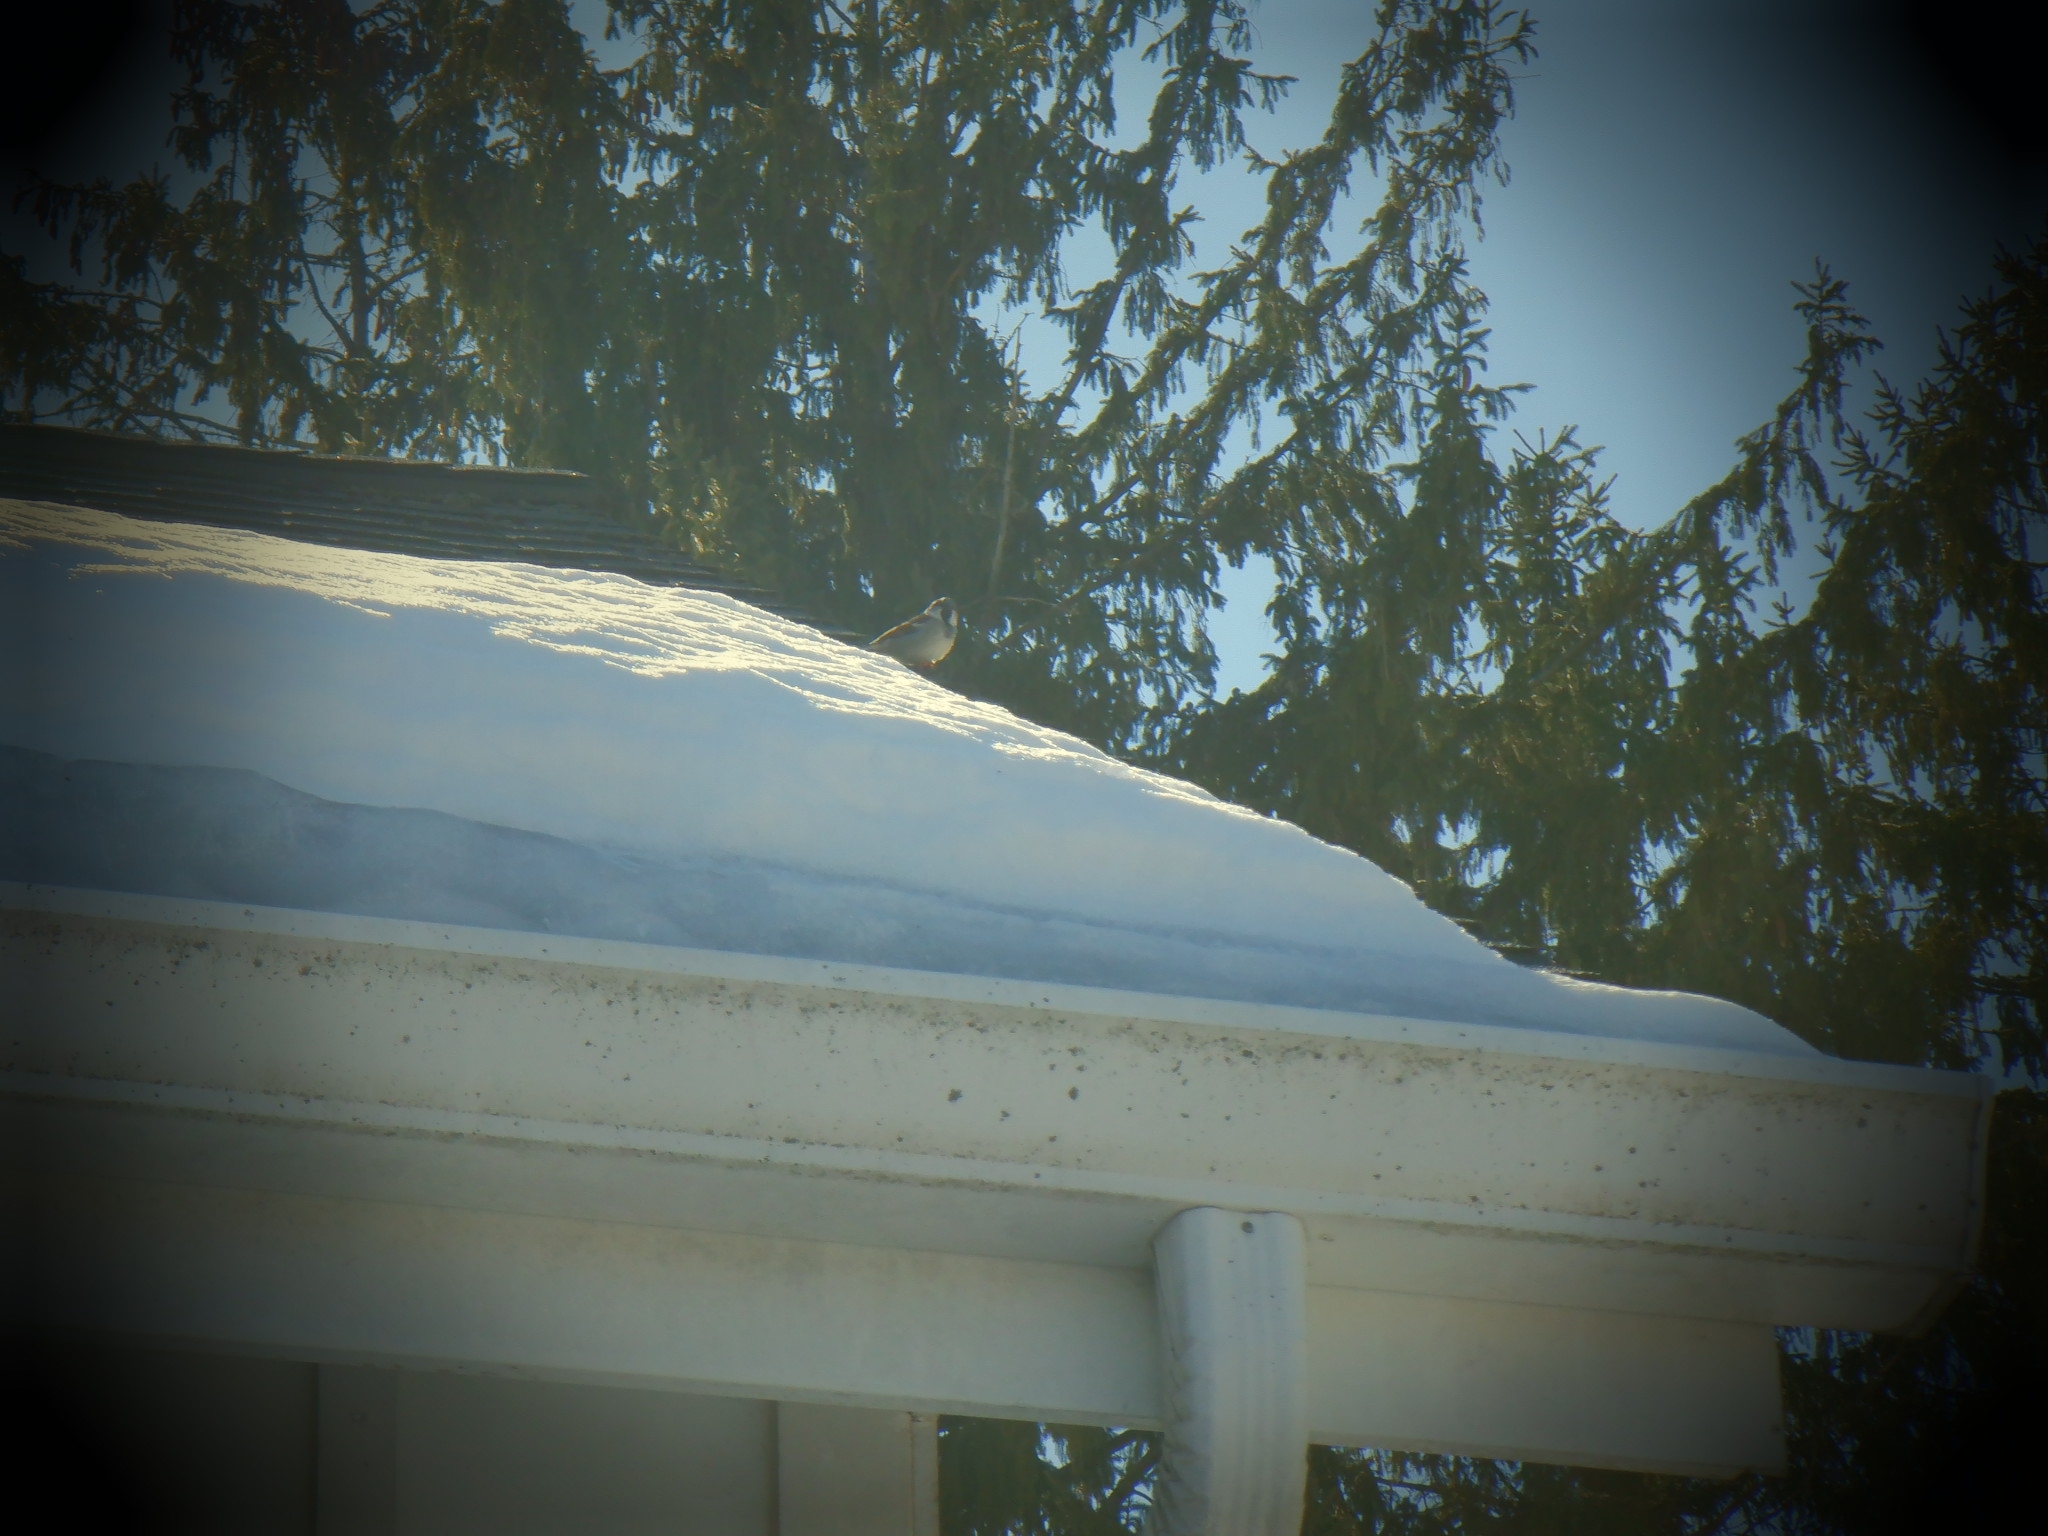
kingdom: Animalia
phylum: Chordata
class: Aves
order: Passeriformes
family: Passeridae
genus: Passer
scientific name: Passer domesticus
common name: House sparrow
